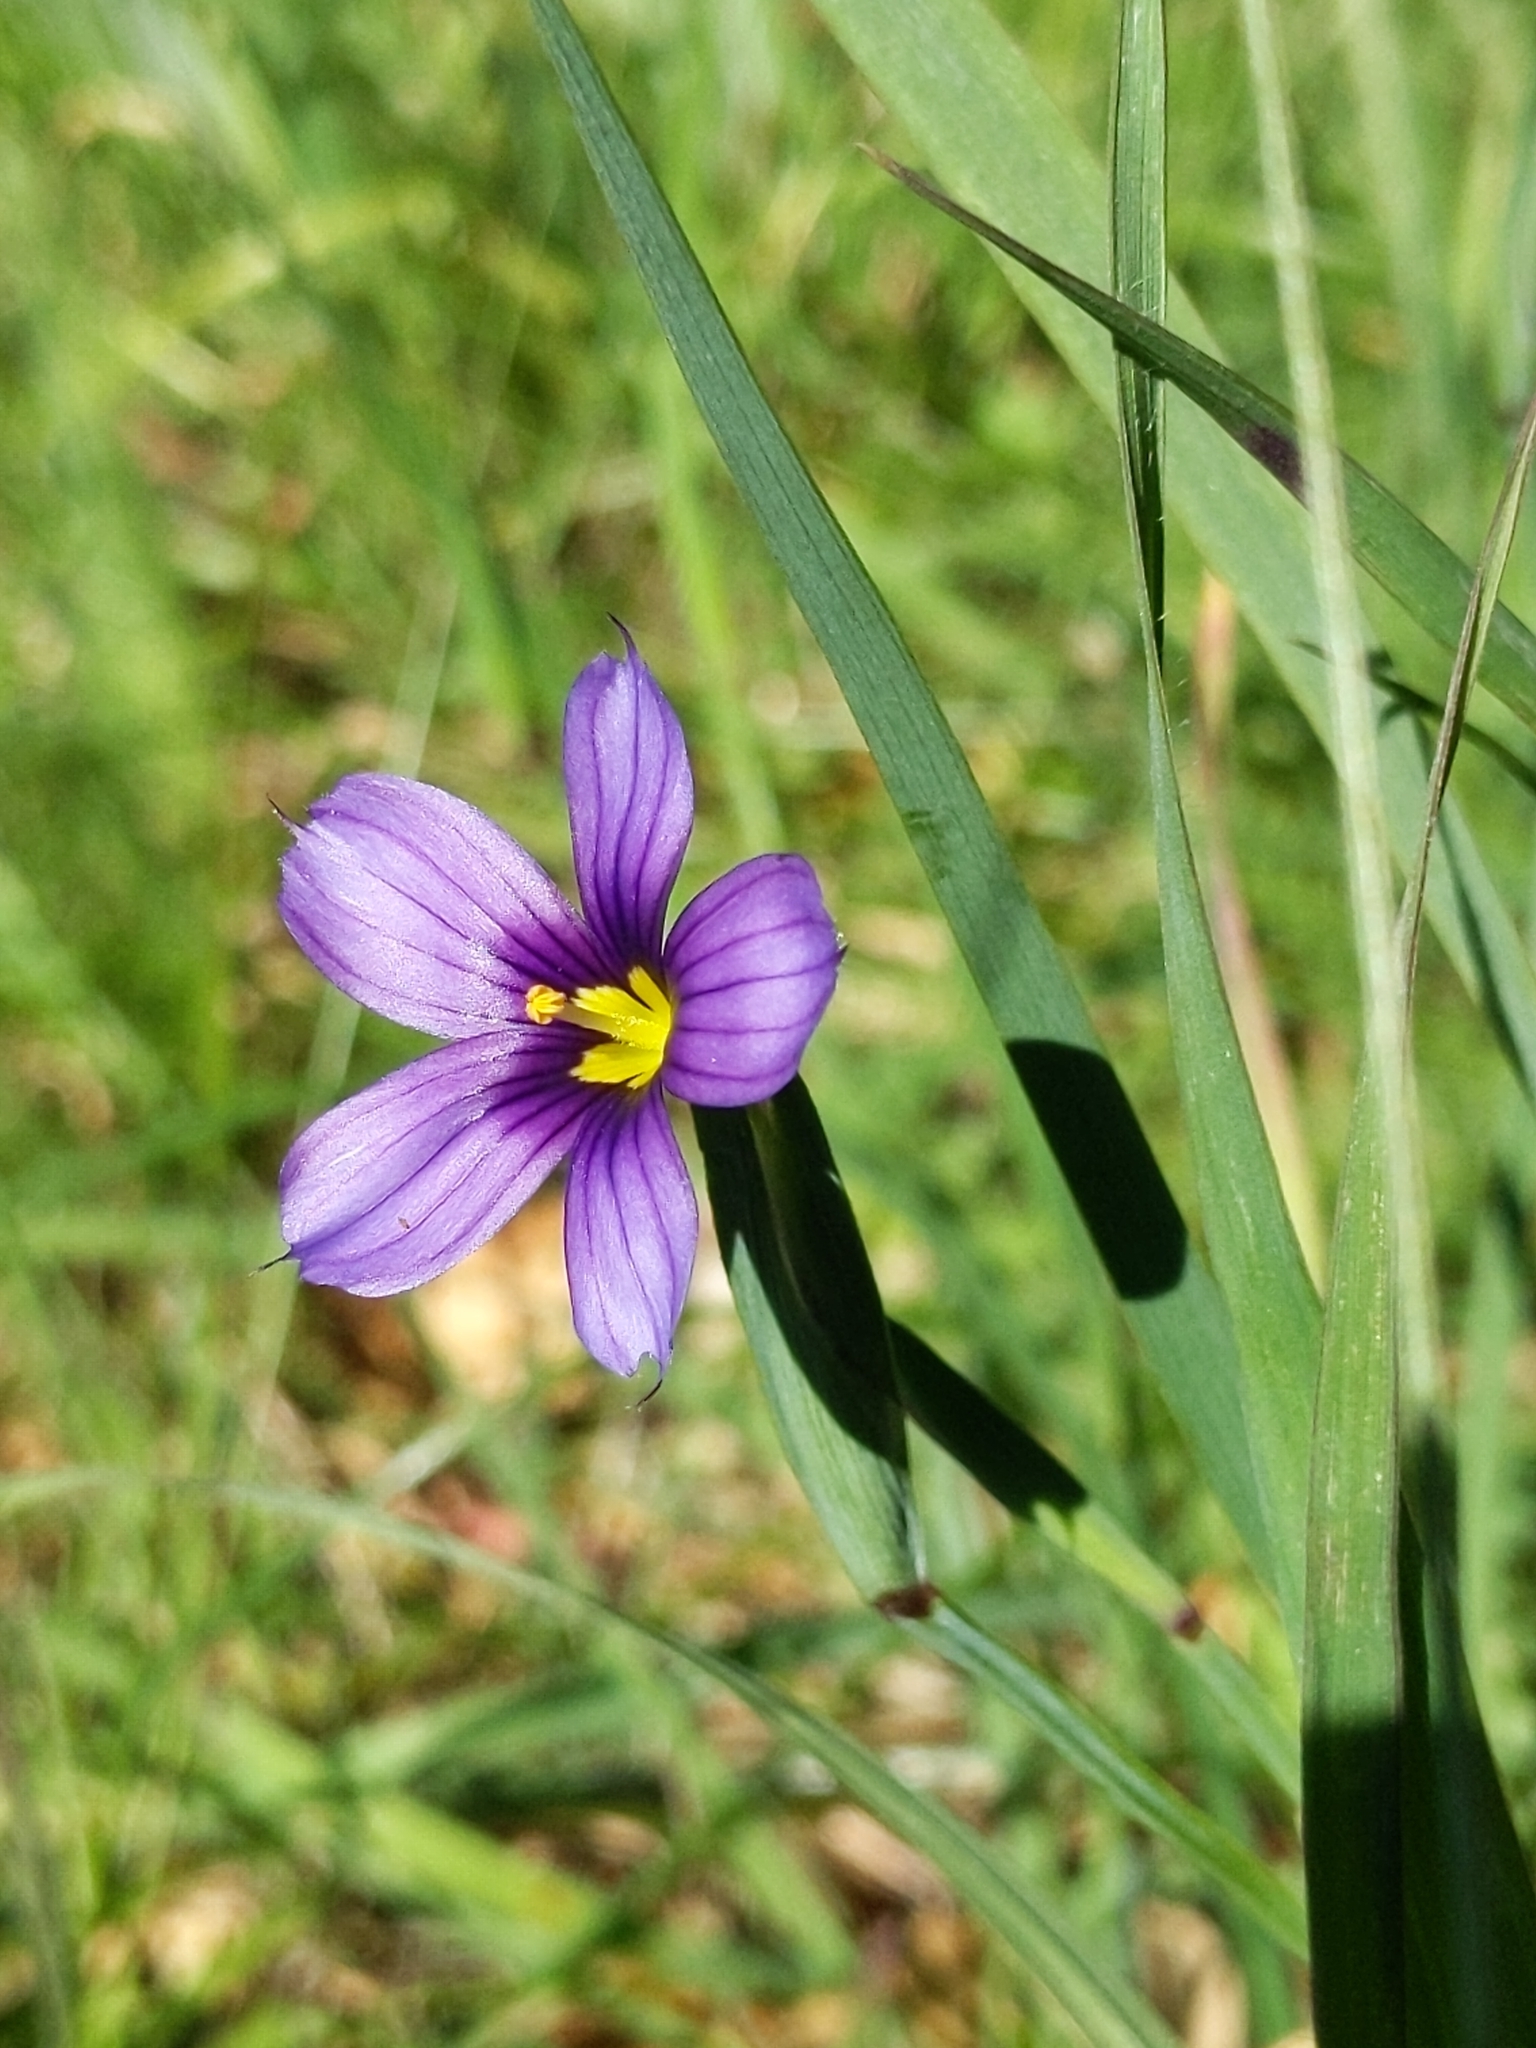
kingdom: Plantae
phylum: Tracheophyta
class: Liliopsida
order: Asparagales
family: Iridaceae
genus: Sisyrinchium
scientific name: Sisyrinchium bellum
